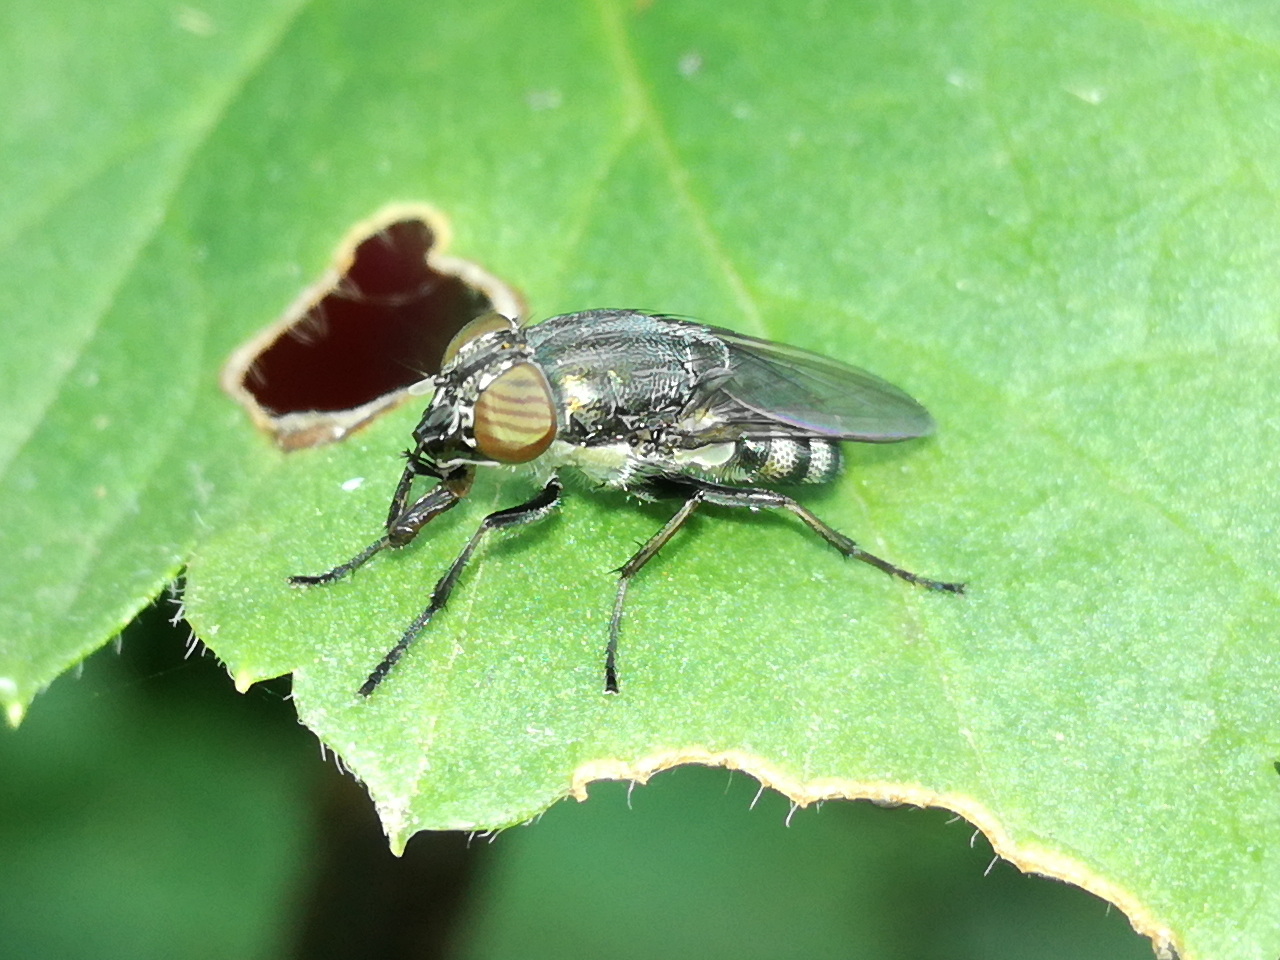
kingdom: Animalia
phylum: Arthropoda
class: Insecta
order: Diptera
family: Calliphoridae
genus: Stomorhina
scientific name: Stomorhina lunata
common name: Locust blowfly
